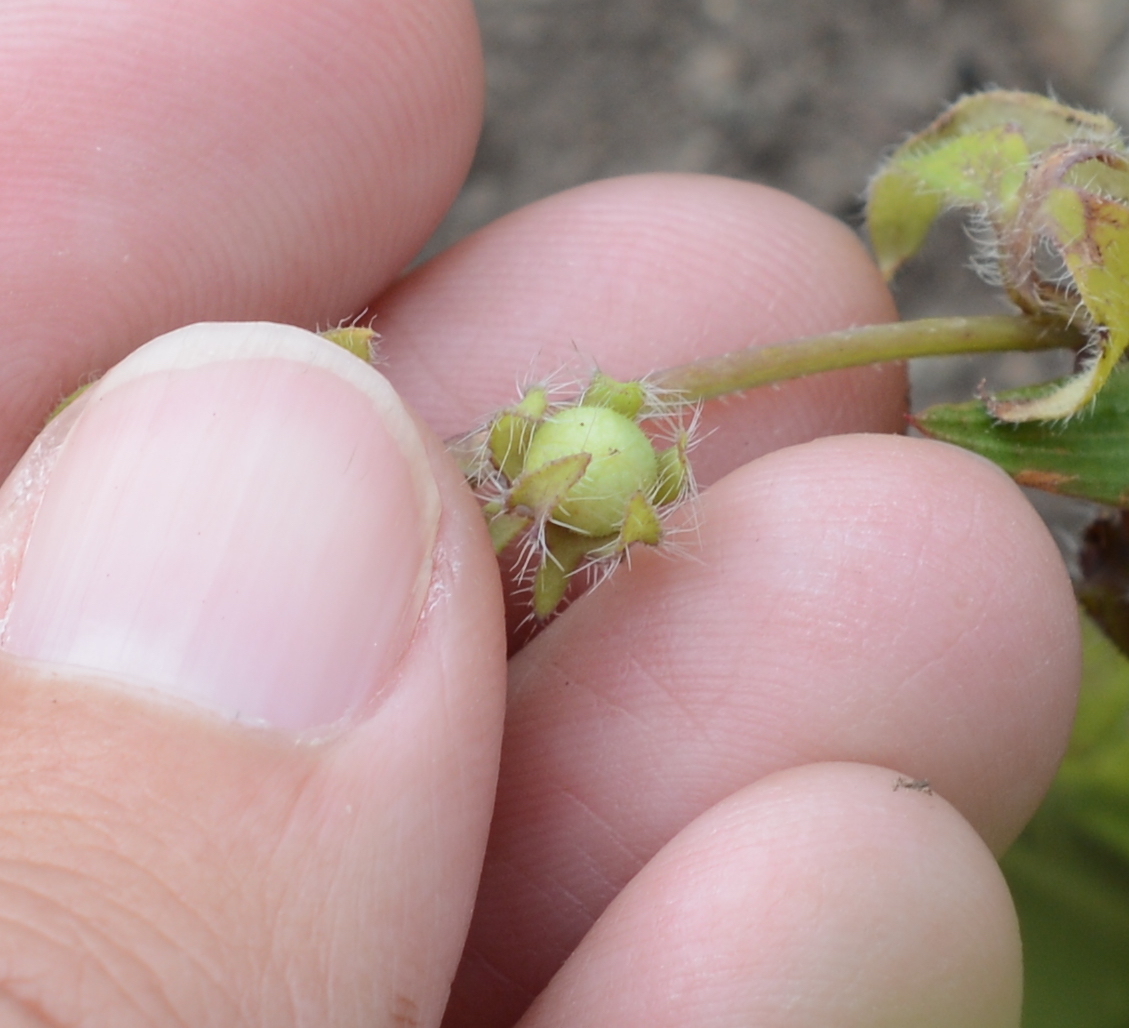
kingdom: Plantae
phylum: Tracheophyta
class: Magnoliopsida
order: Boraginales
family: Hydrophyllaceae
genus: Nemophila
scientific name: Nemophila breviflora
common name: Great basin baby-blue-eyes
